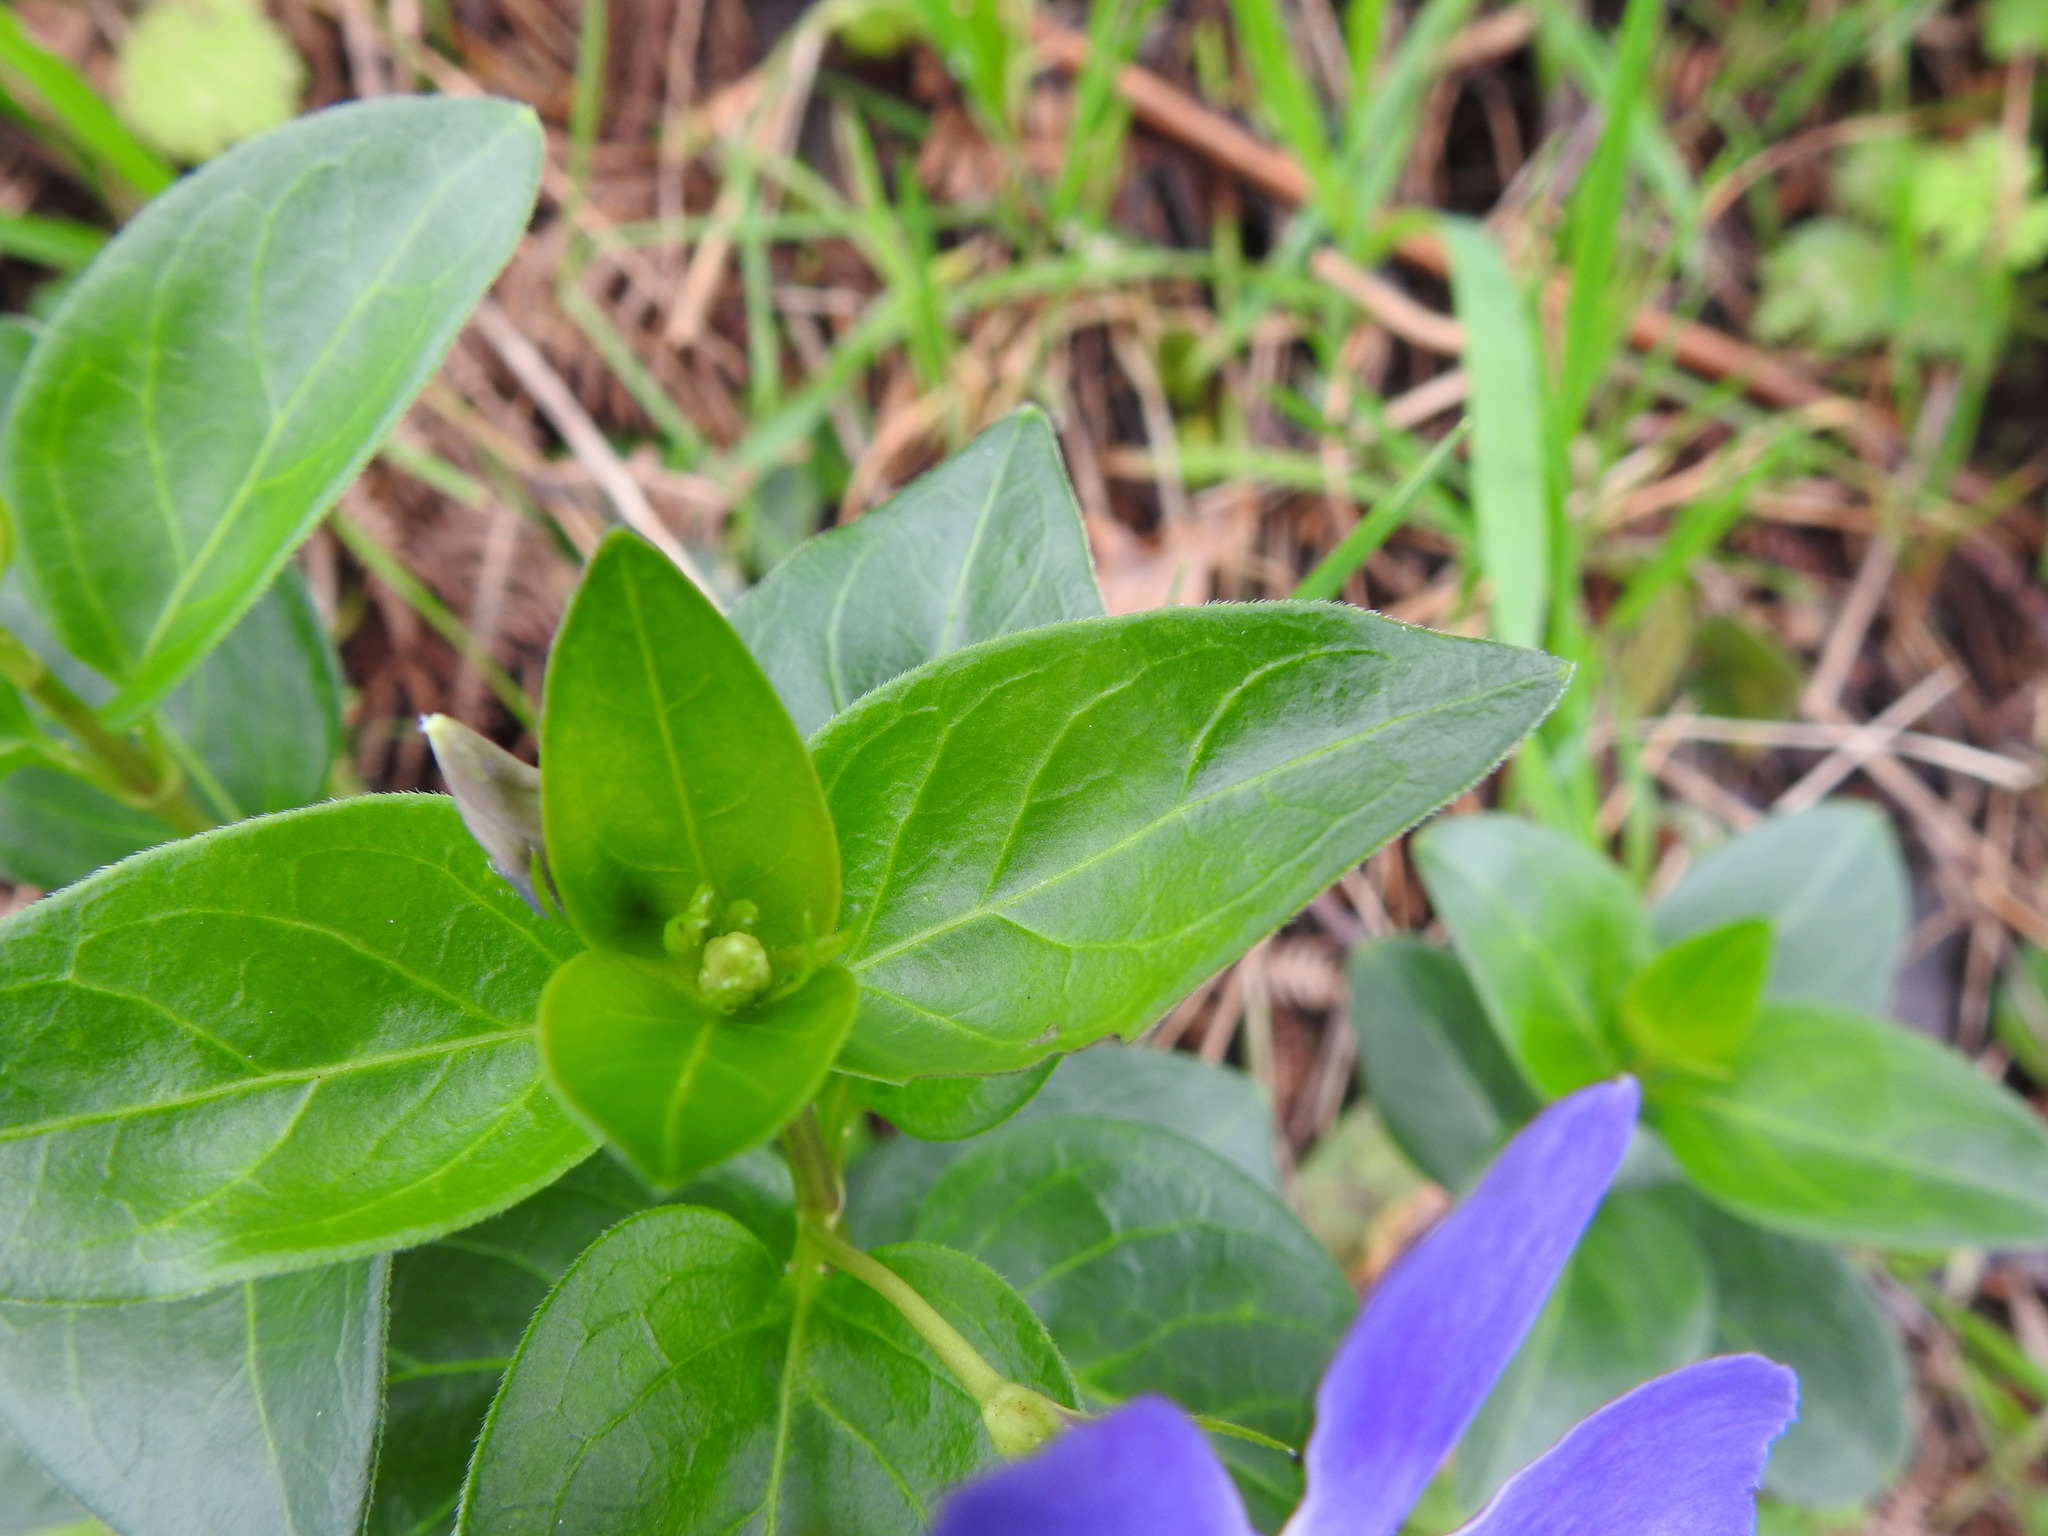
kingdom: Plantae
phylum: Tracheophyta
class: Magnoliopsida
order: Gentianales
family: Apocynaceae
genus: Vinca
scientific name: Vinca major
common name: Greater periwinkle
